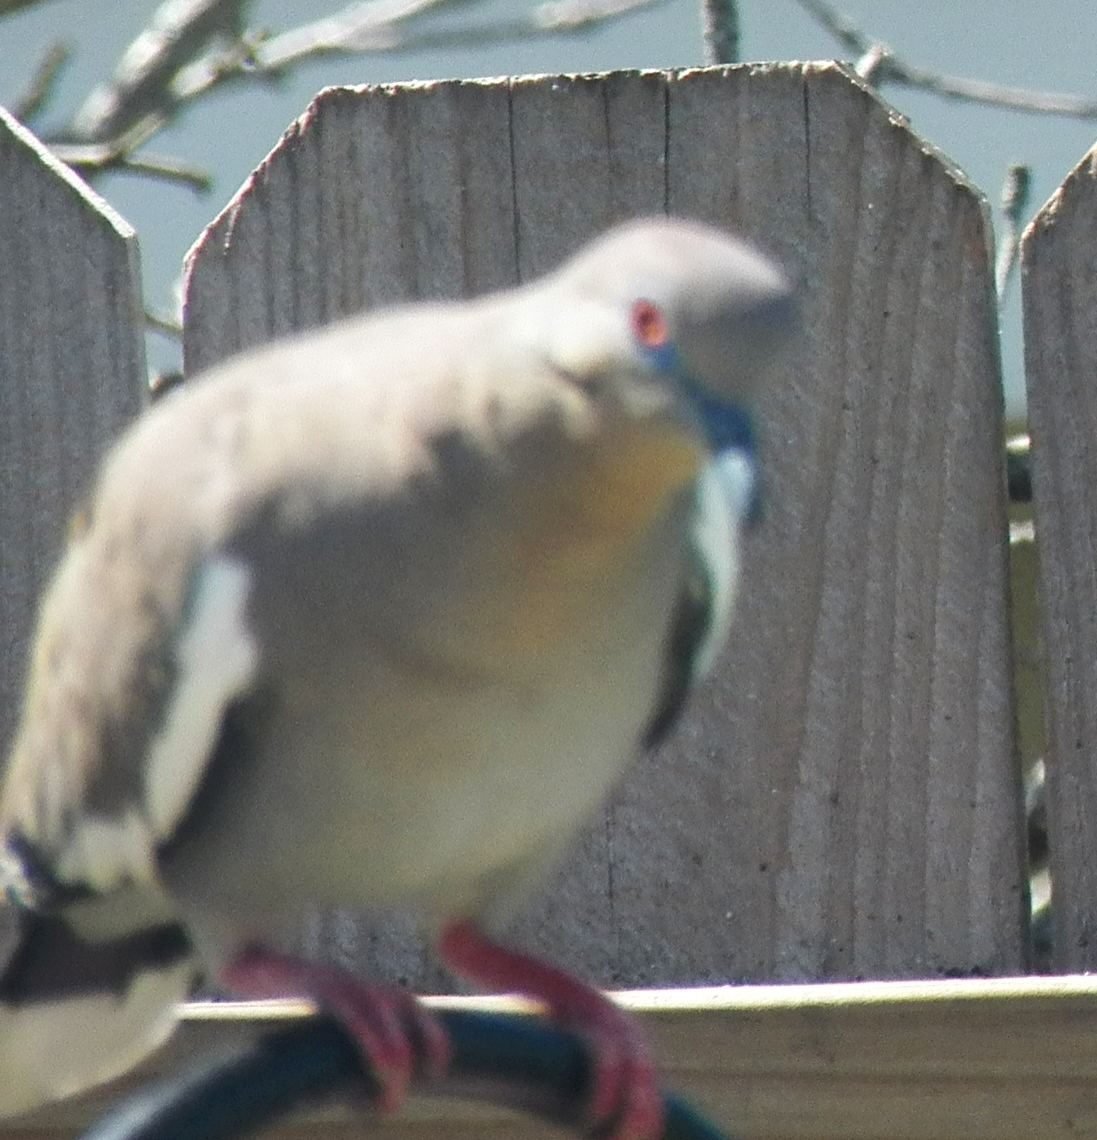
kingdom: Animalia
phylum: Chordata
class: Aves
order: Columbiformes
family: Columbidae
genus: Zenaida
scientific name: Zenaida asiatica
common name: White-winged dove
